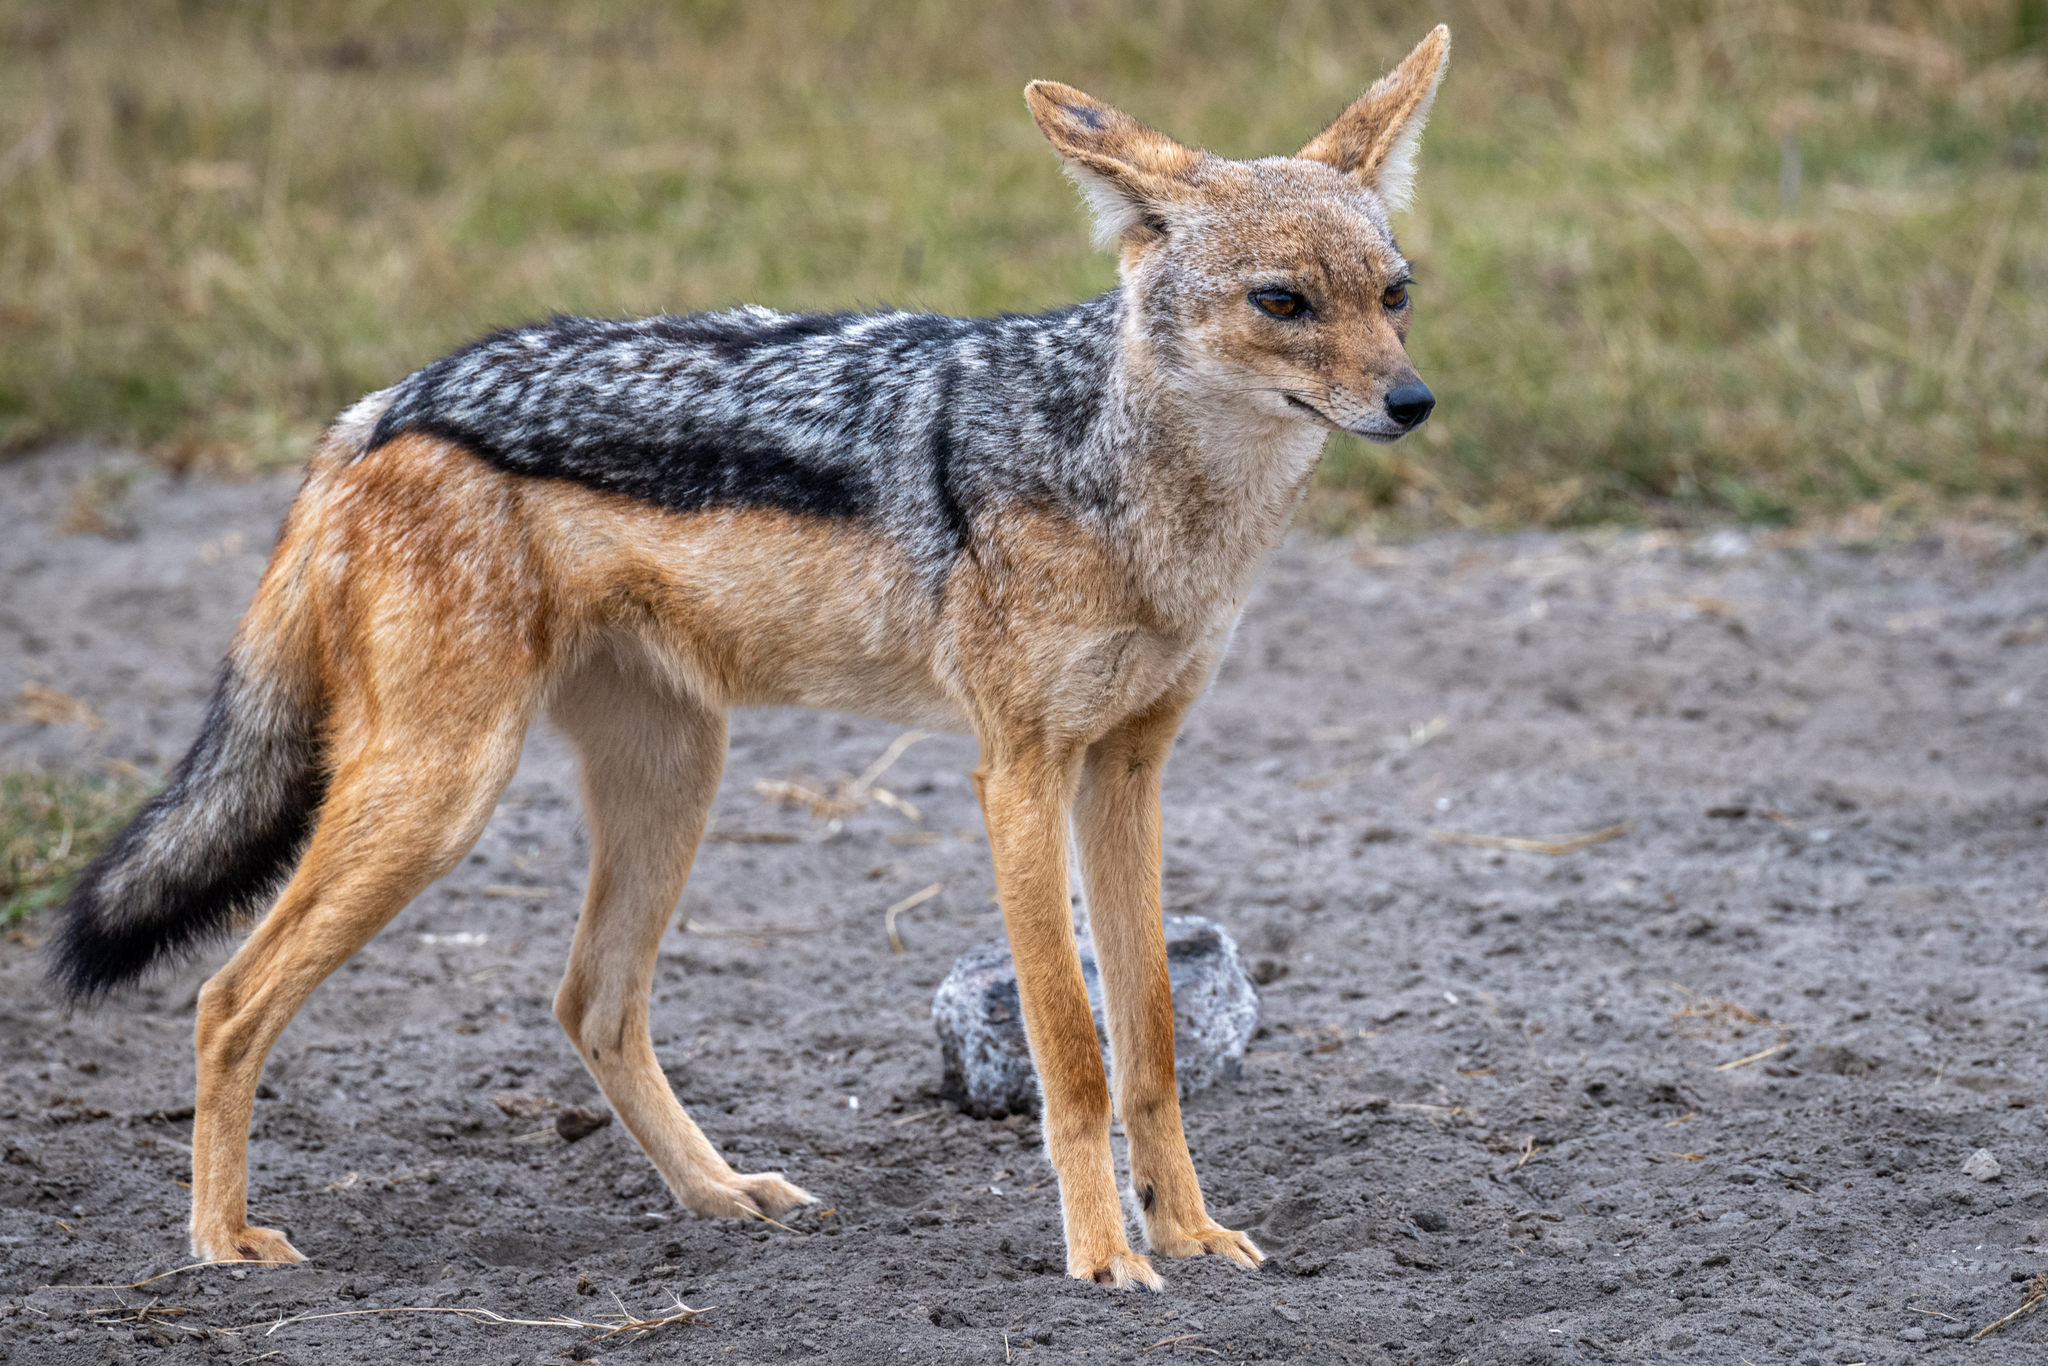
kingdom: Animalia
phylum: Chordata
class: Mammalia
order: Carnivora
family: Canidae
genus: Lupulella
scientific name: Lupulella
